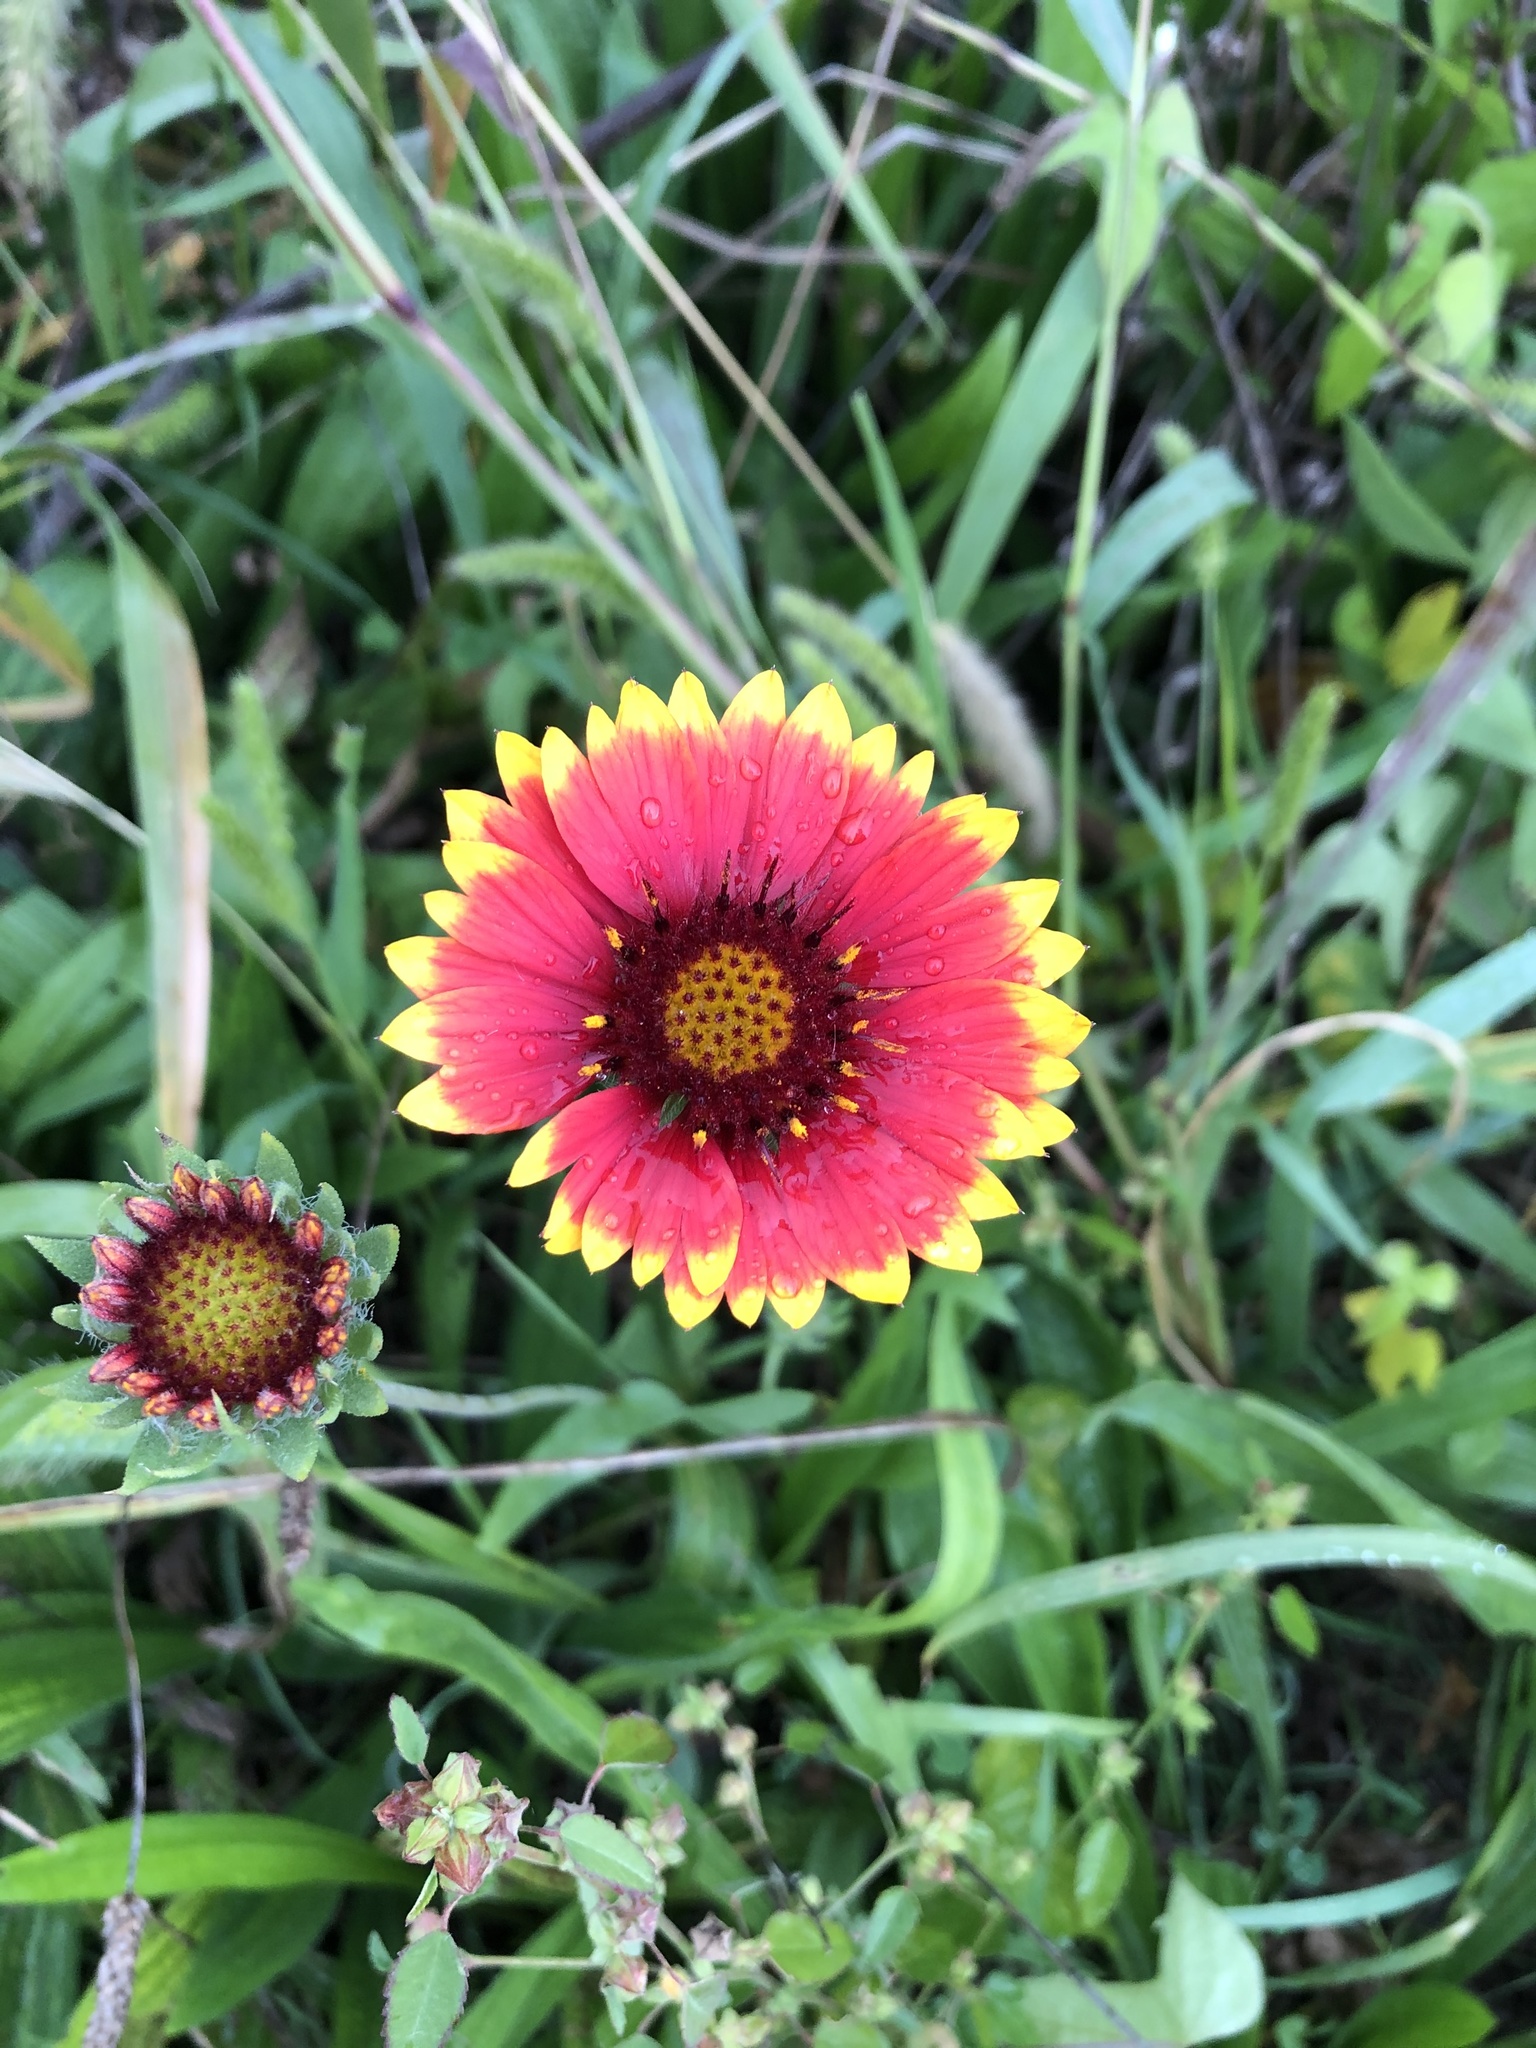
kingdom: Plantae
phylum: Tracheophyta
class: Magnoliopsida
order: Asterales
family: Asteraceae
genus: Gaillardia
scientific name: Gaillardia pulchella
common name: Firewheel
